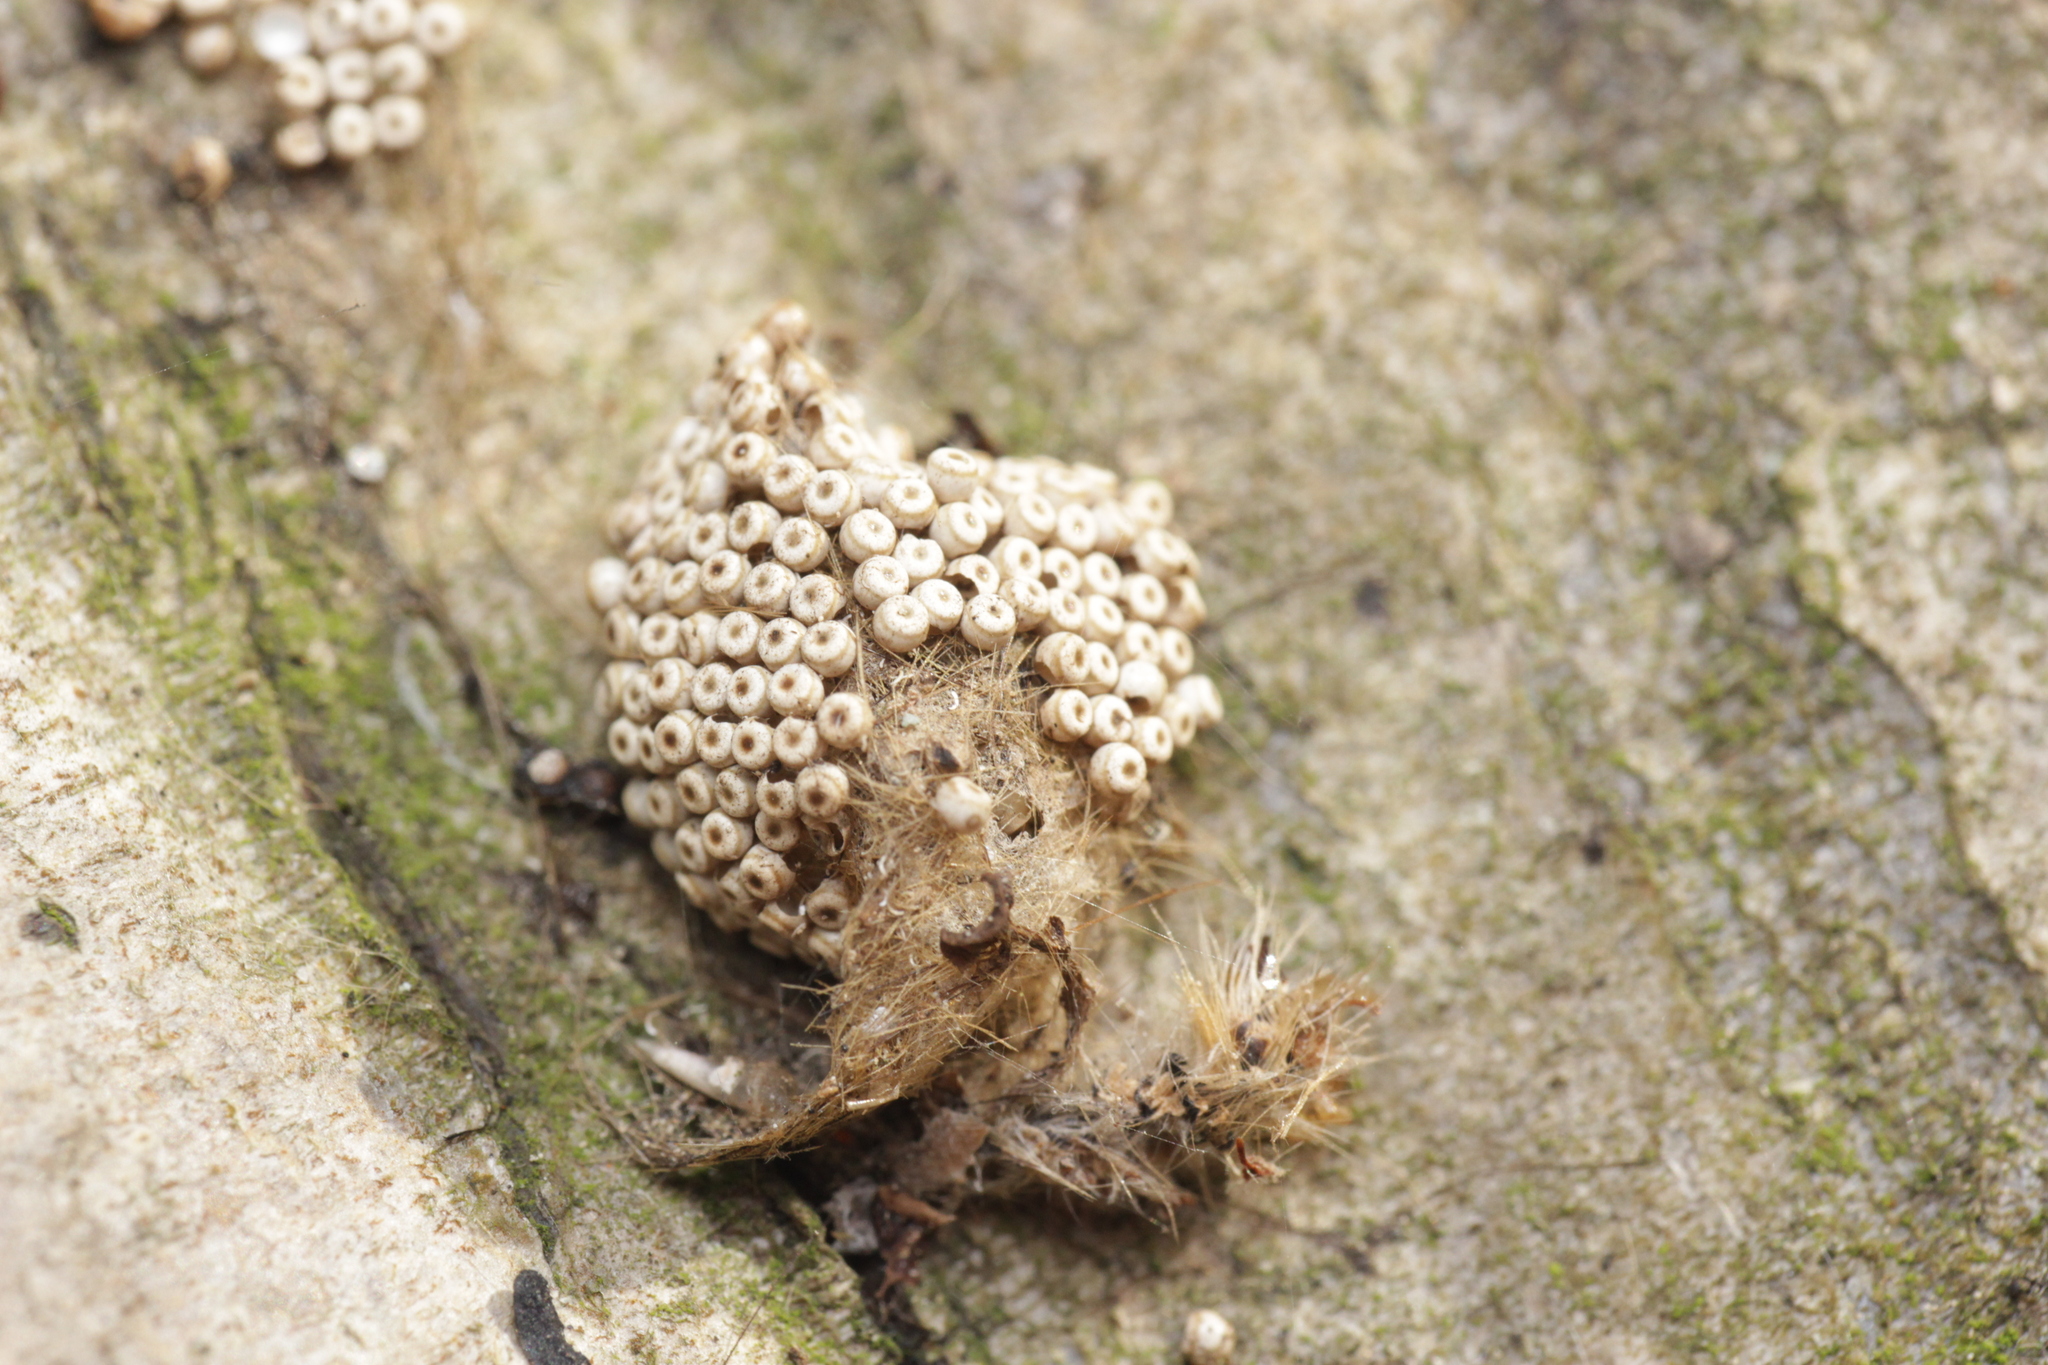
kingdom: Animalia
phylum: Arthropoda
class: Insecta
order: Lepidoptera
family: Erebidae
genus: Orgyia
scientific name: Orgyia antiqua
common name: Vapourer
